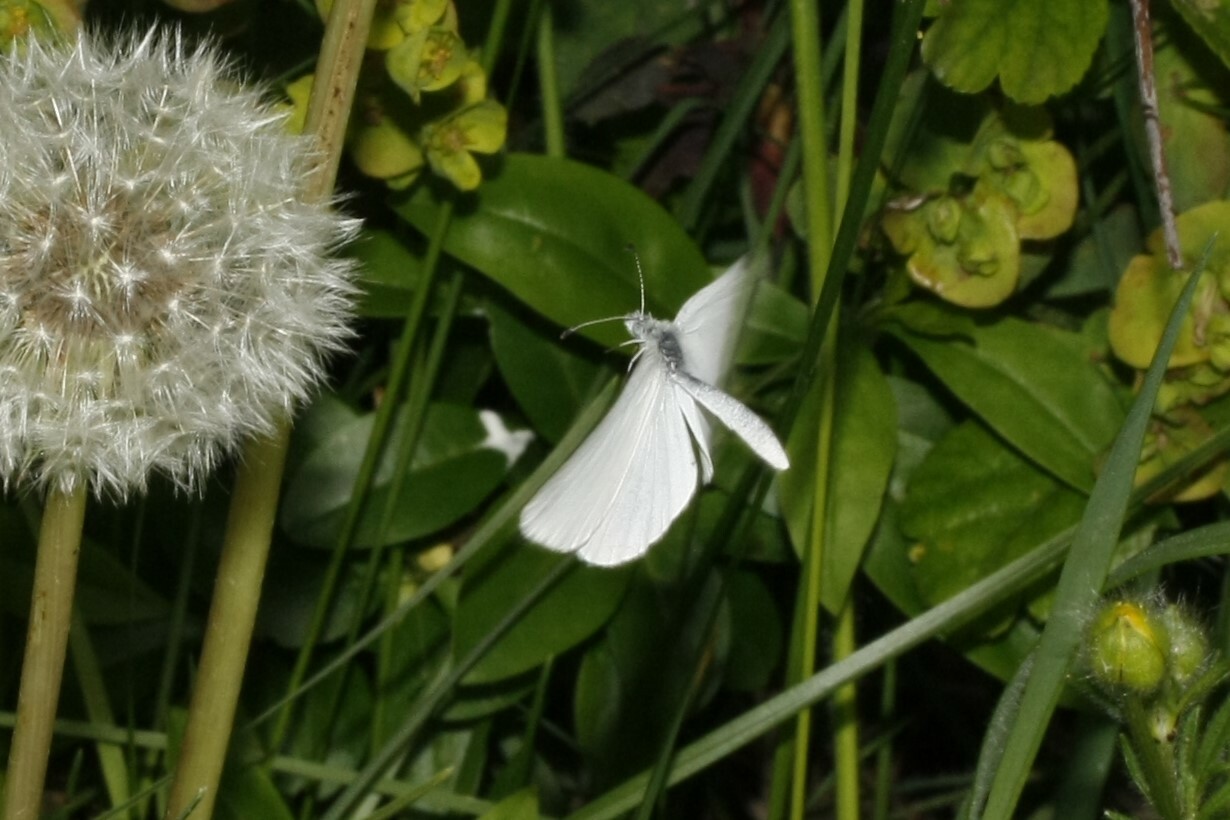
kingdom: Animalia
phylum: Arthropoda
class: Insecta
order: Lepidoptera
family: Pieridae
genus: Leptidea
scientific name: Leptidea
